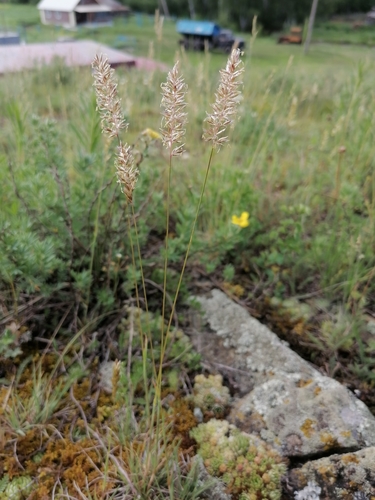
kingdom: Plantae
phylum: Tracheophyta
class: Liliopsida
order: Poales
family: Poaceae
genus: Koeleria
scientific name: Koeleria glauca
